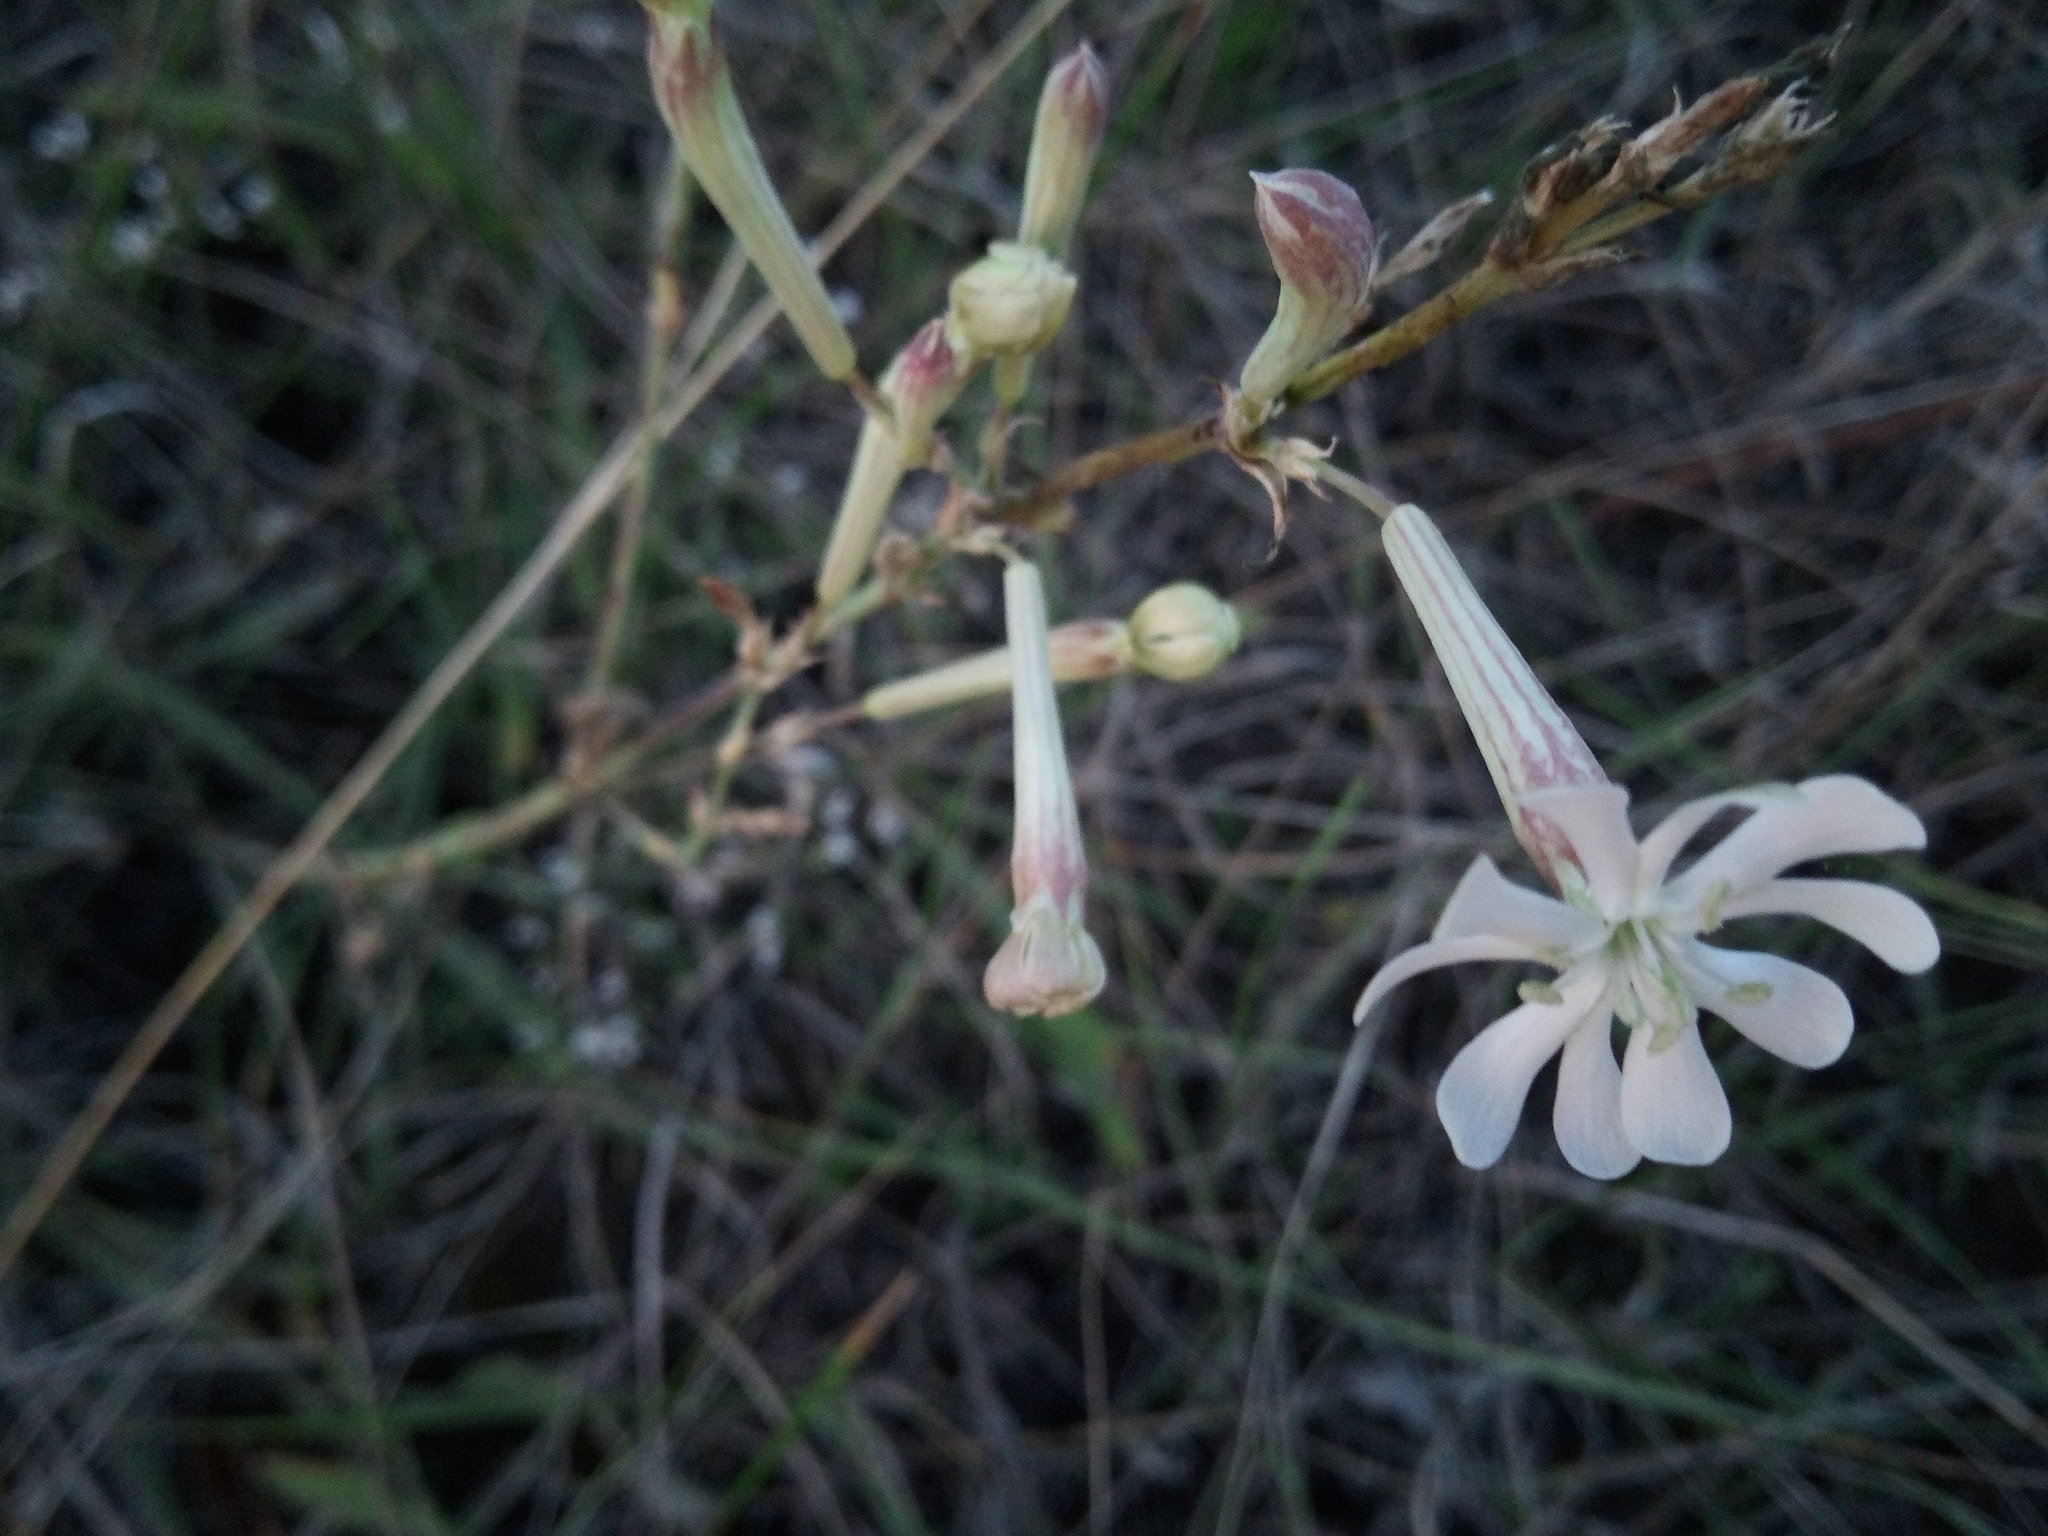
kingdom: Plantae
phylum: Tracheophyta
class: Magnoliopsida
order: Caryophyllales
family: Caryophyllaceae
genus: Silene
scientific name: Silene bupleuroides
